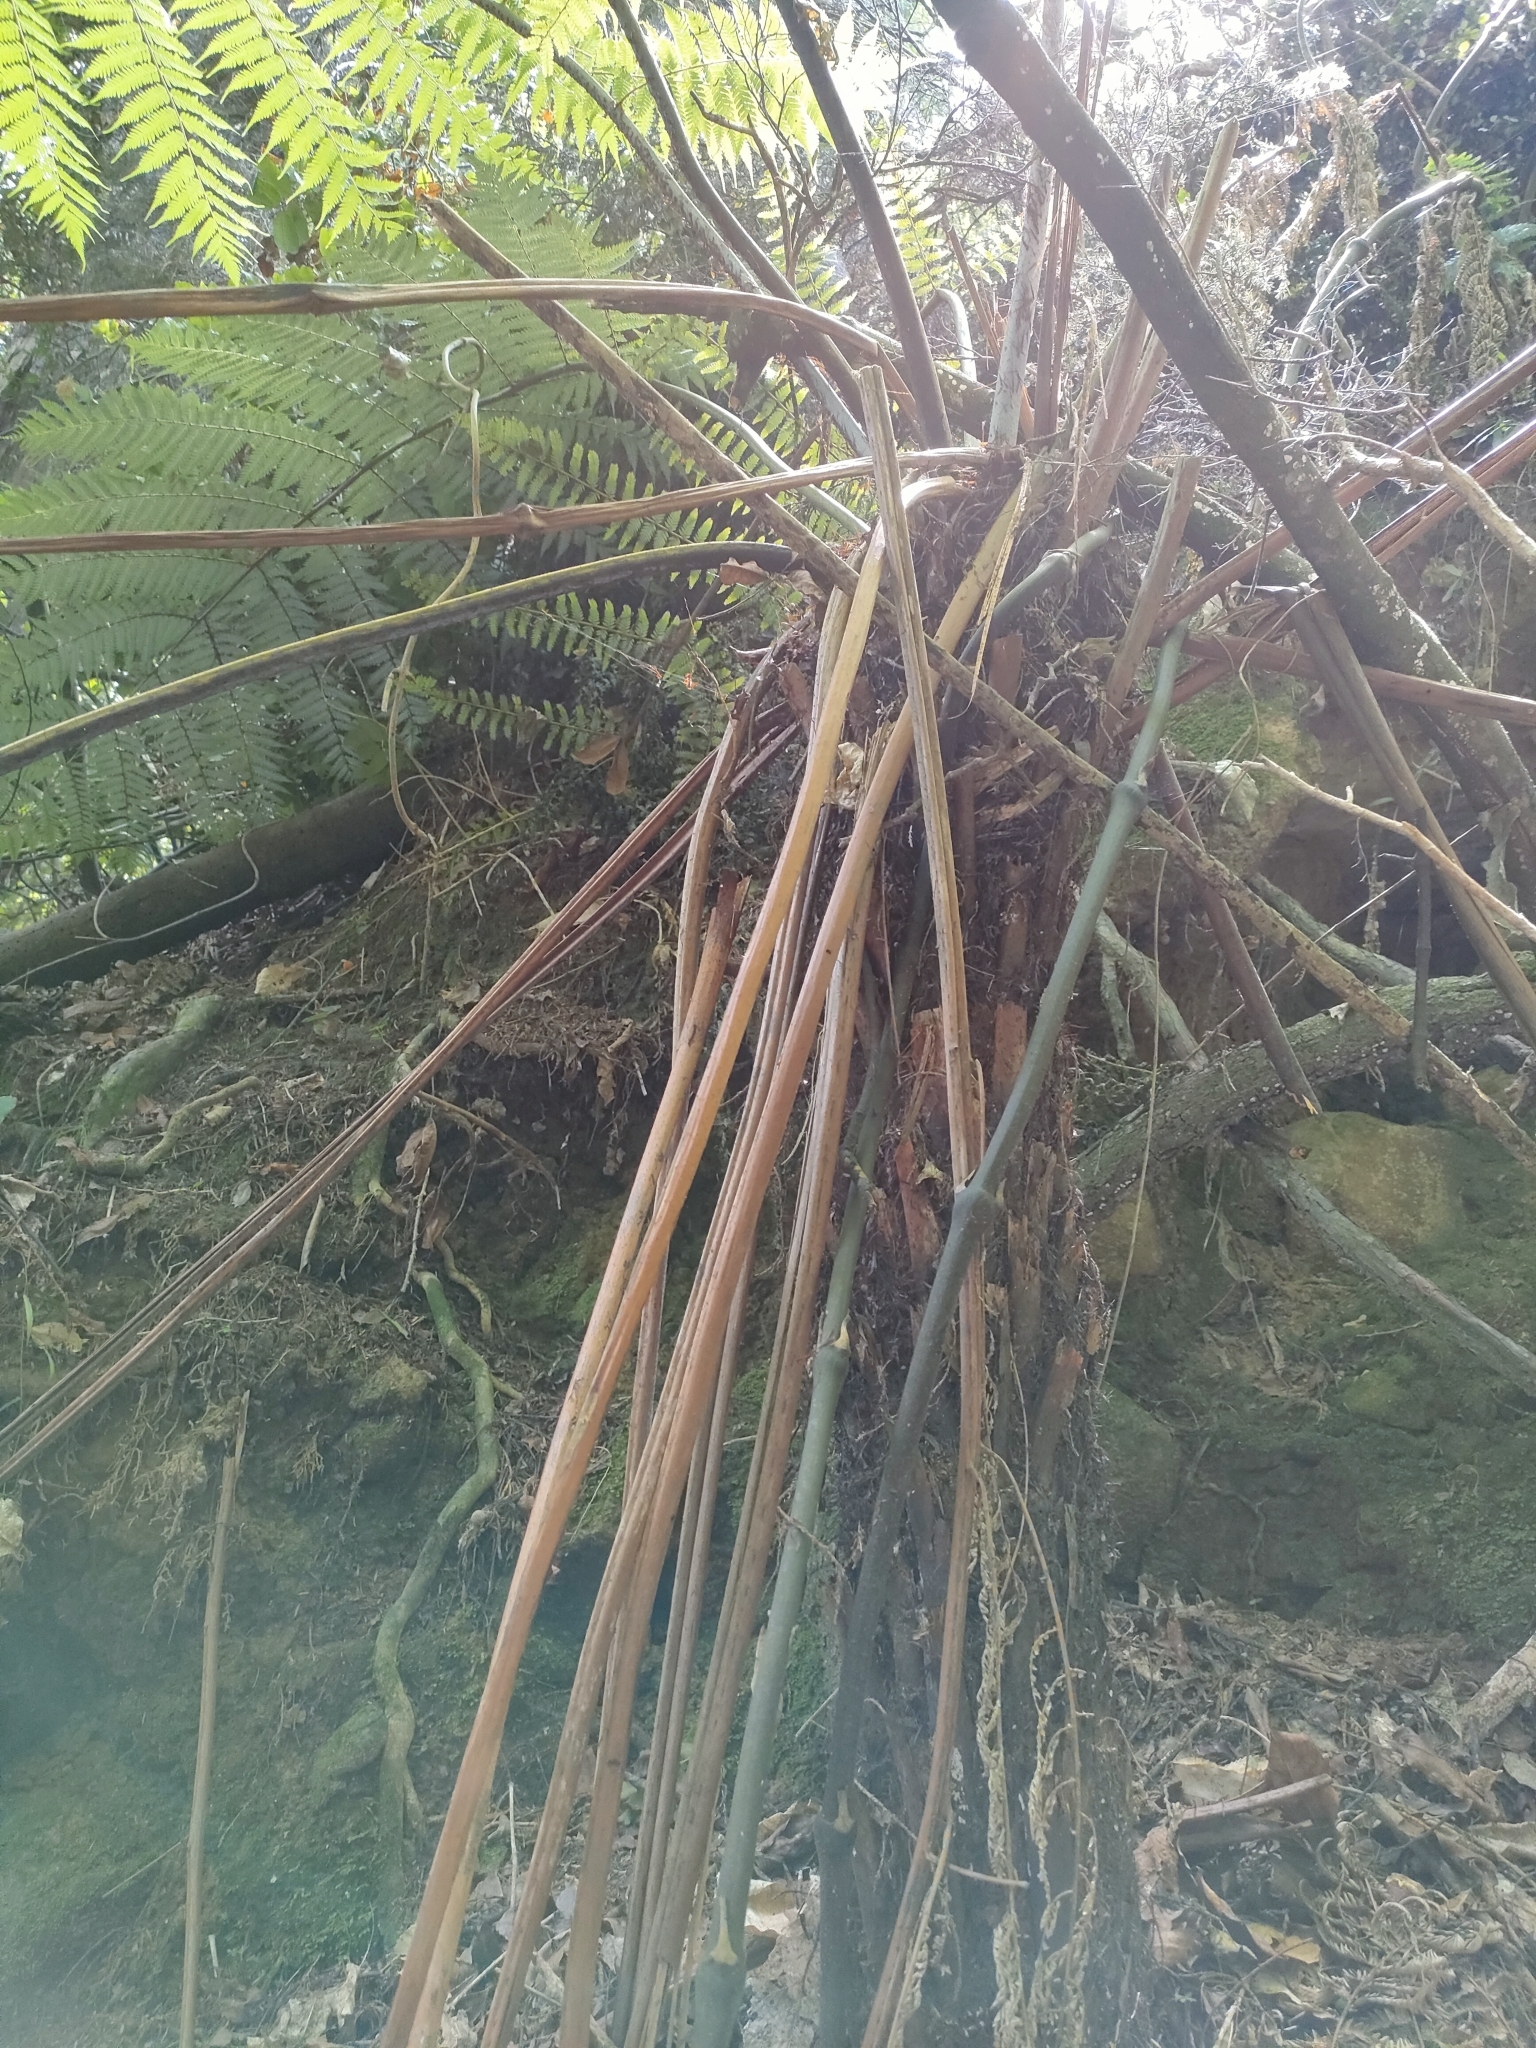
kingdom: Plantae
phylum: Tracheophyta
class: Polypodiopsida
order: Cyatheales
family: Cyatheaceae
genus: Alsophila
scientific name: Alsophila dealbata
